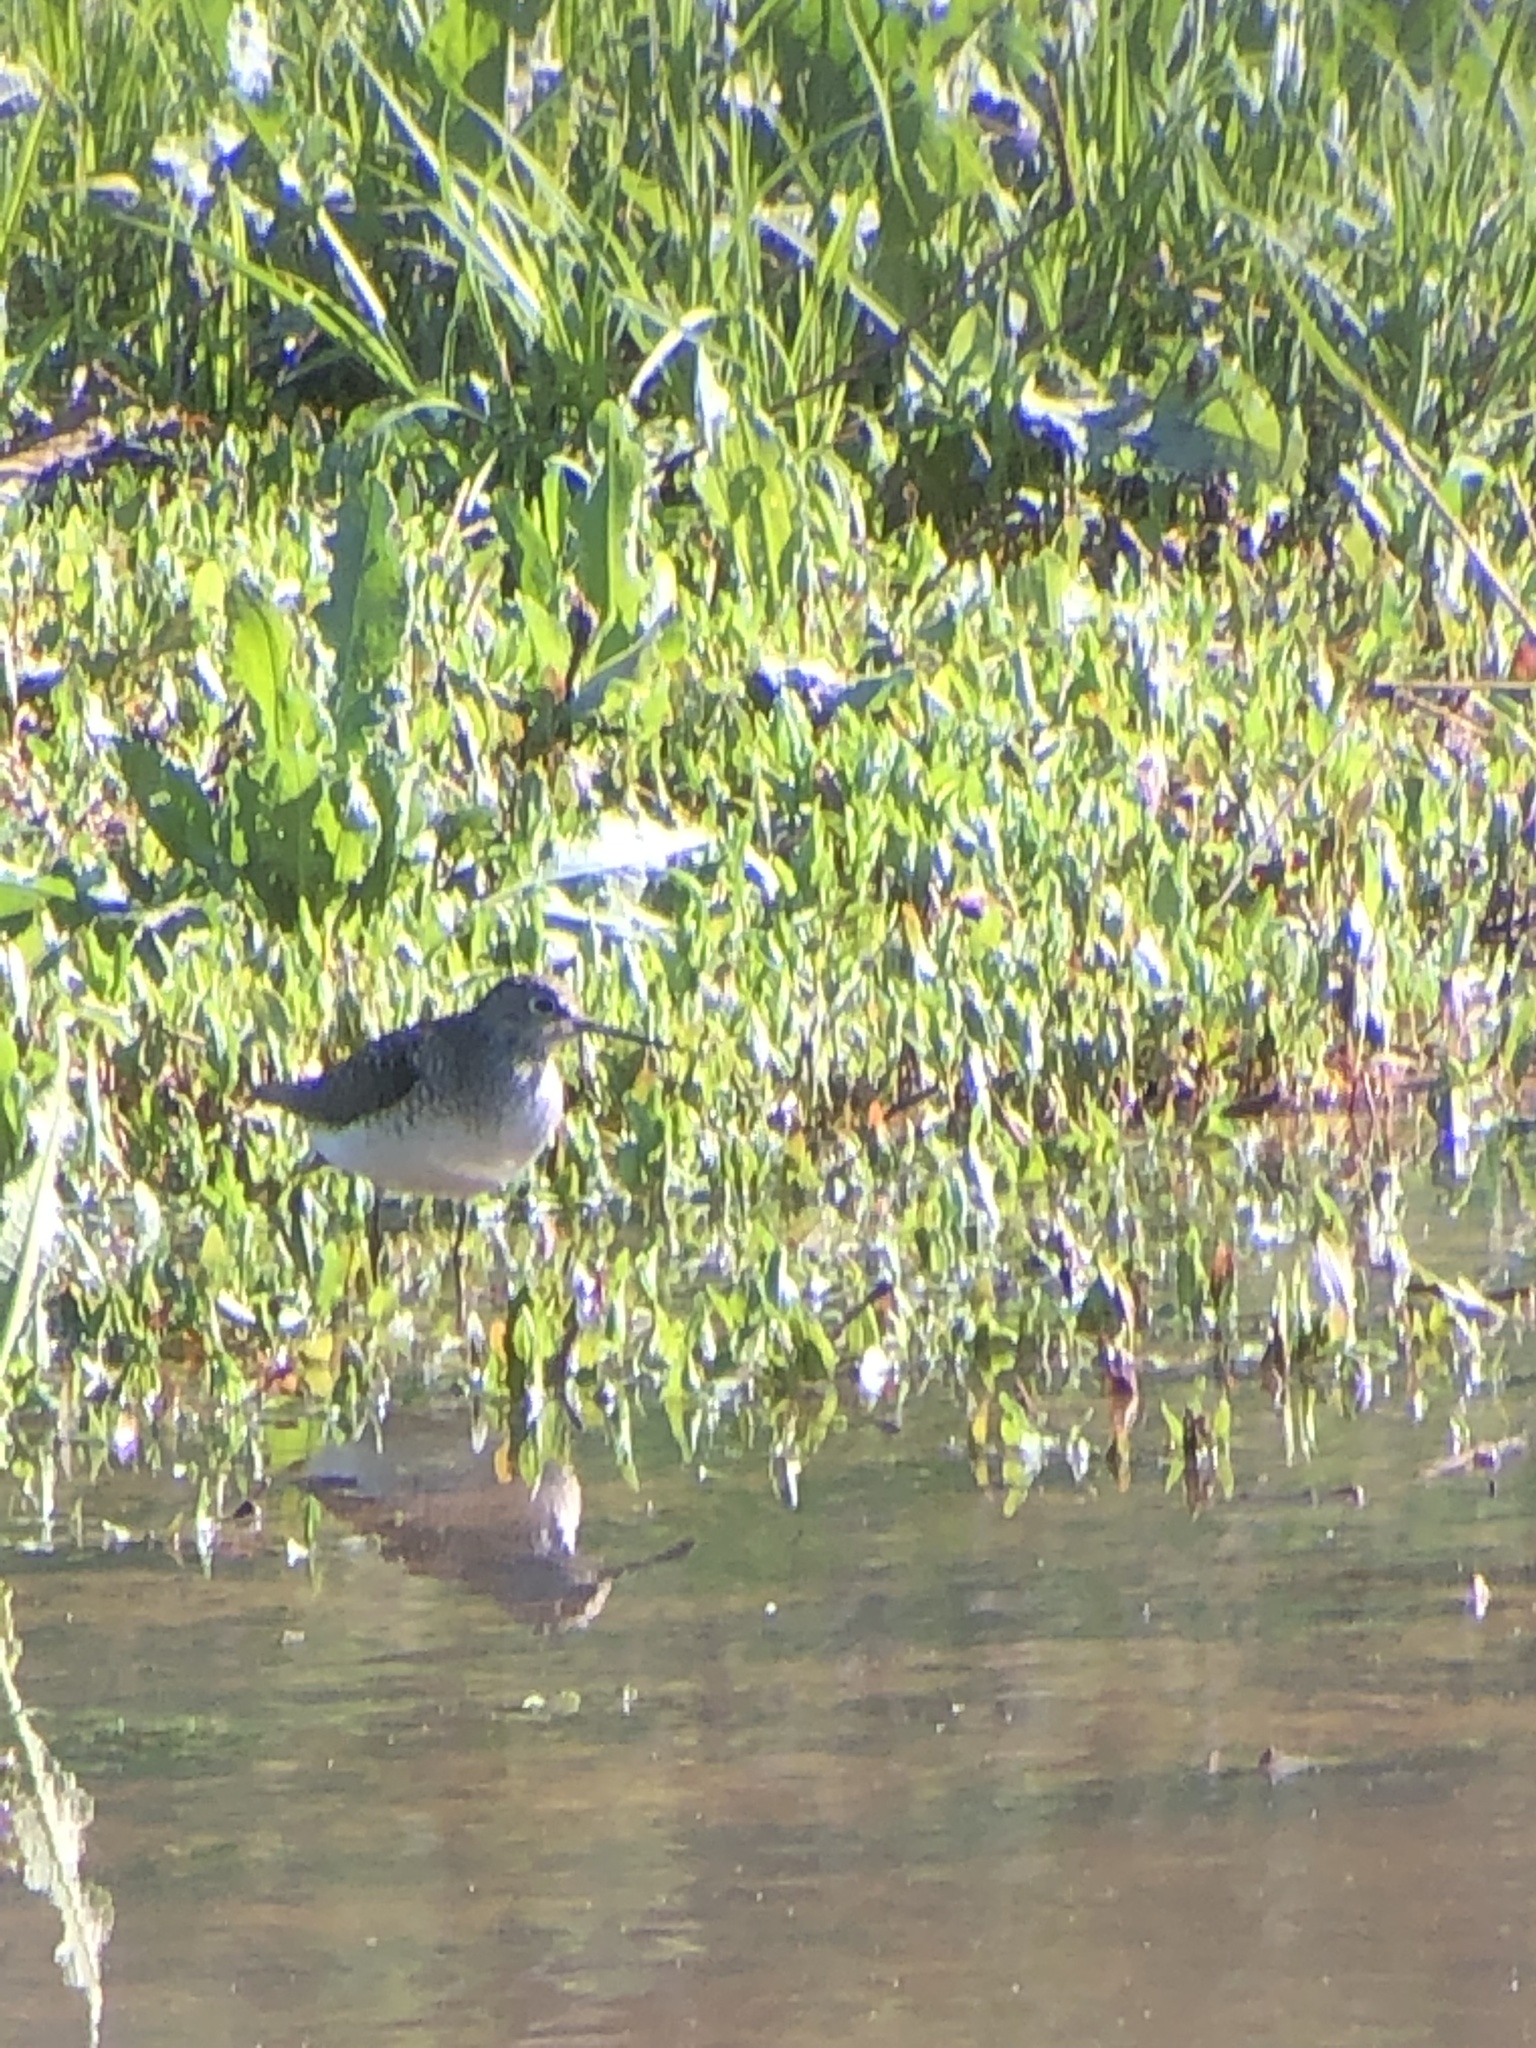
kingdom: Animalia
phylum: Chordata
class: Aves
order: Charadriiformes
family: Scolopacidae
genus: Tringa
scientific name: Tringa solitaria
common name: Solitary sandpiper
